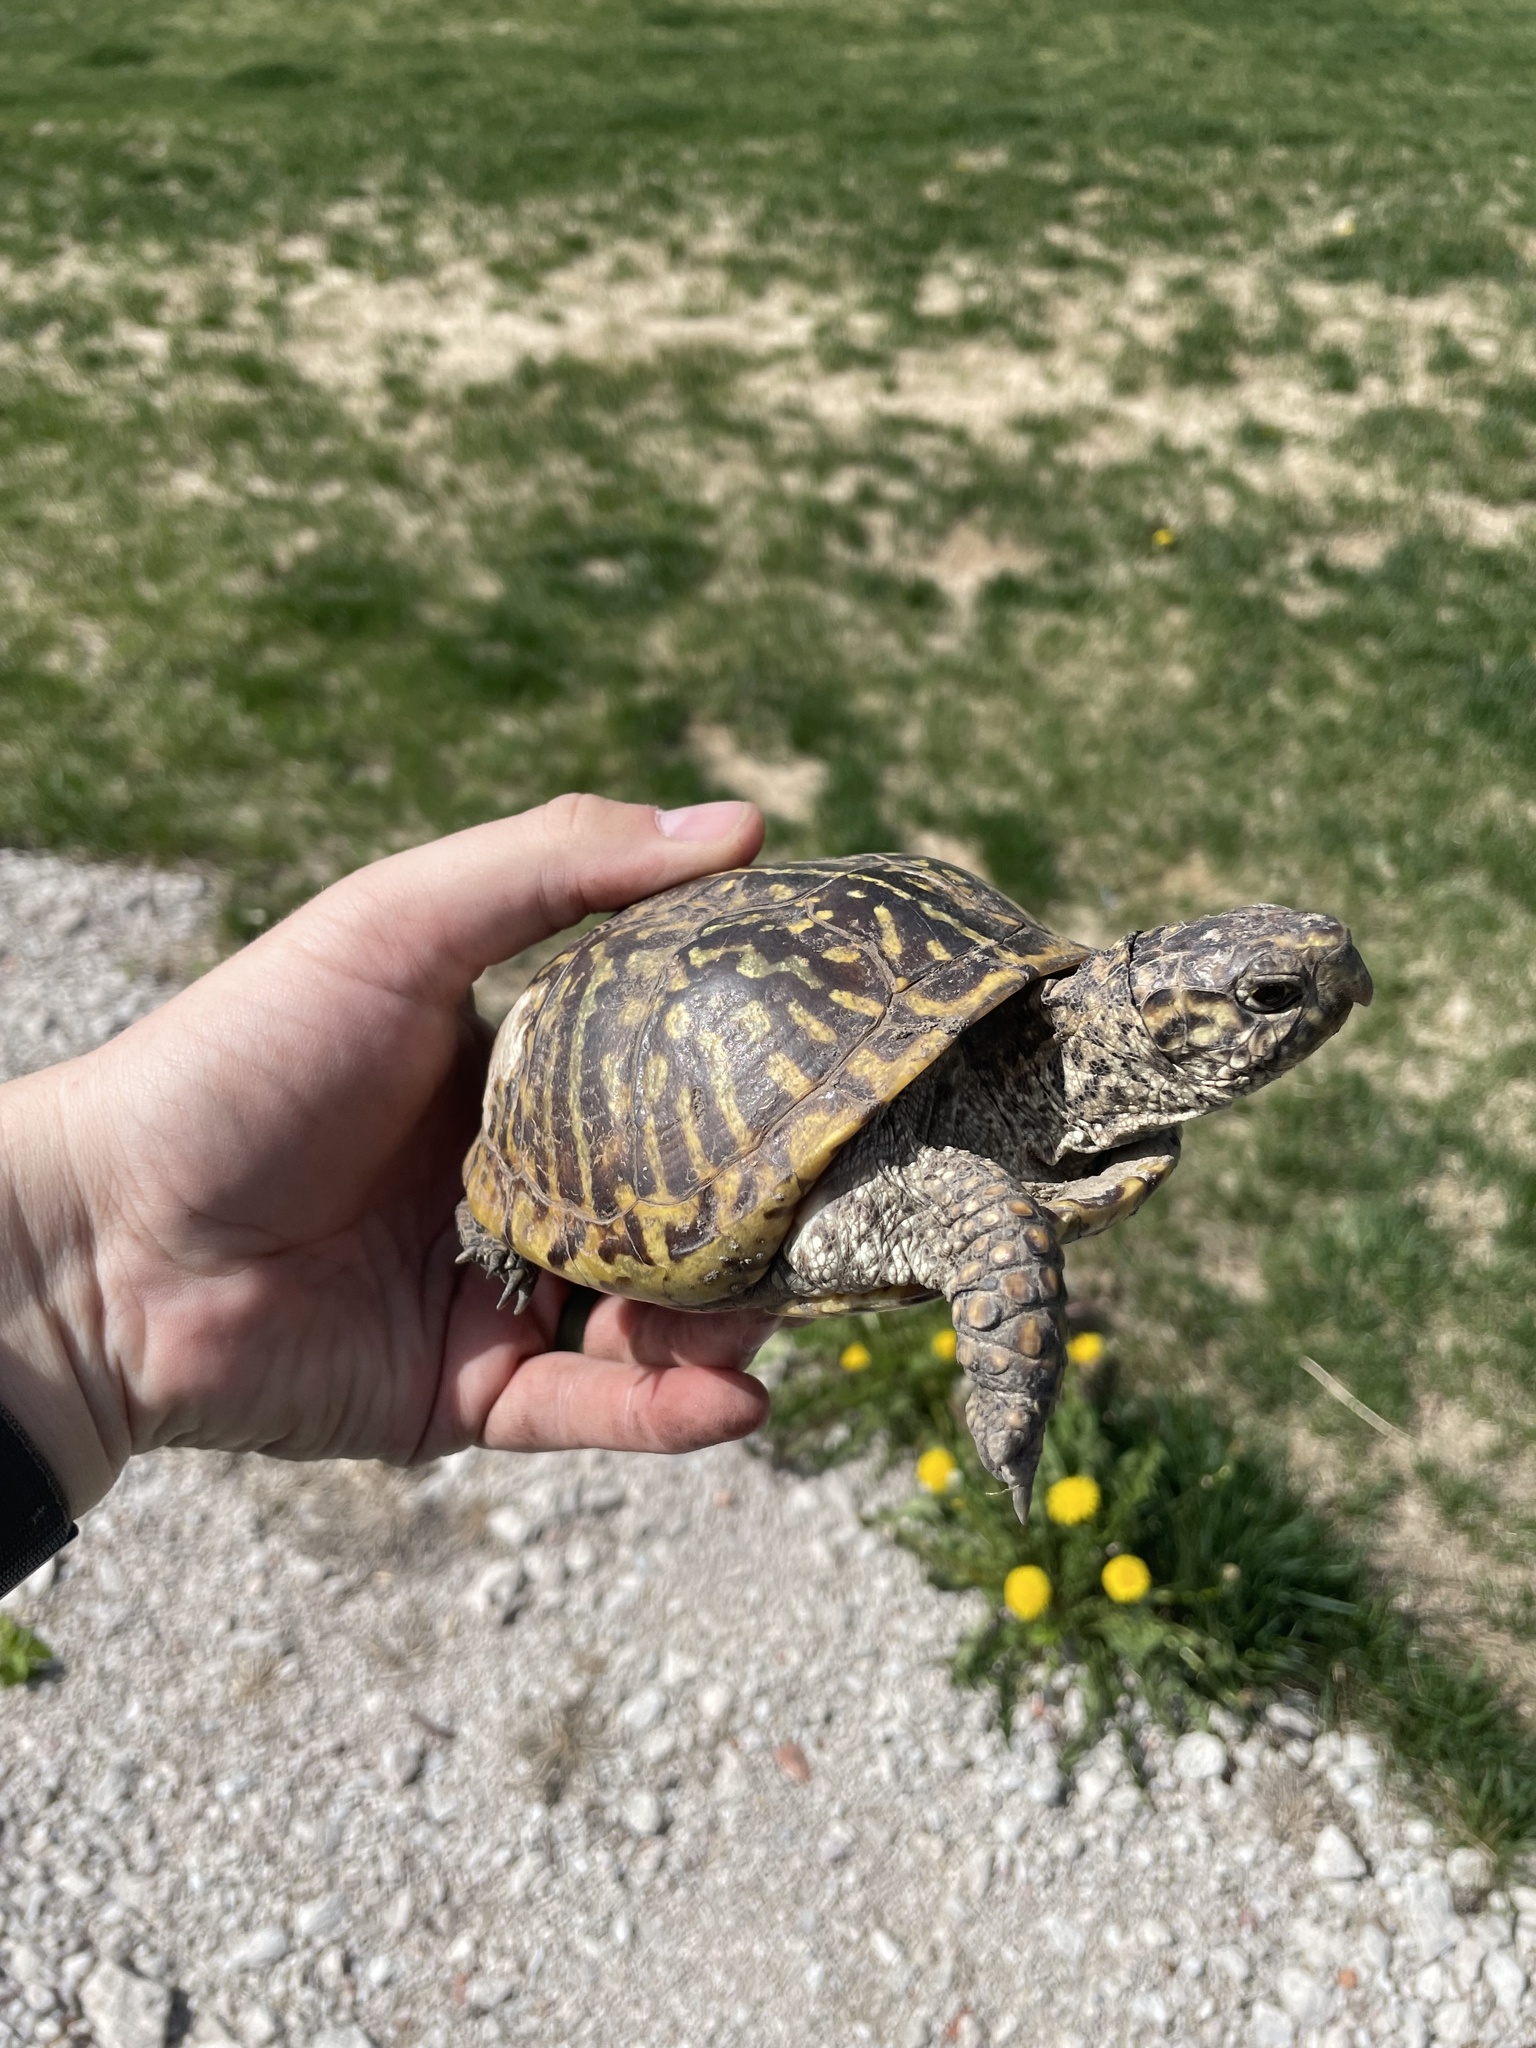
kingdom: Animalia
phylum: Chordata
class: Testudines
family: Emydidae
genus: Terrapene
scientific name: Terrapene ornata
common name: Western box turtle
